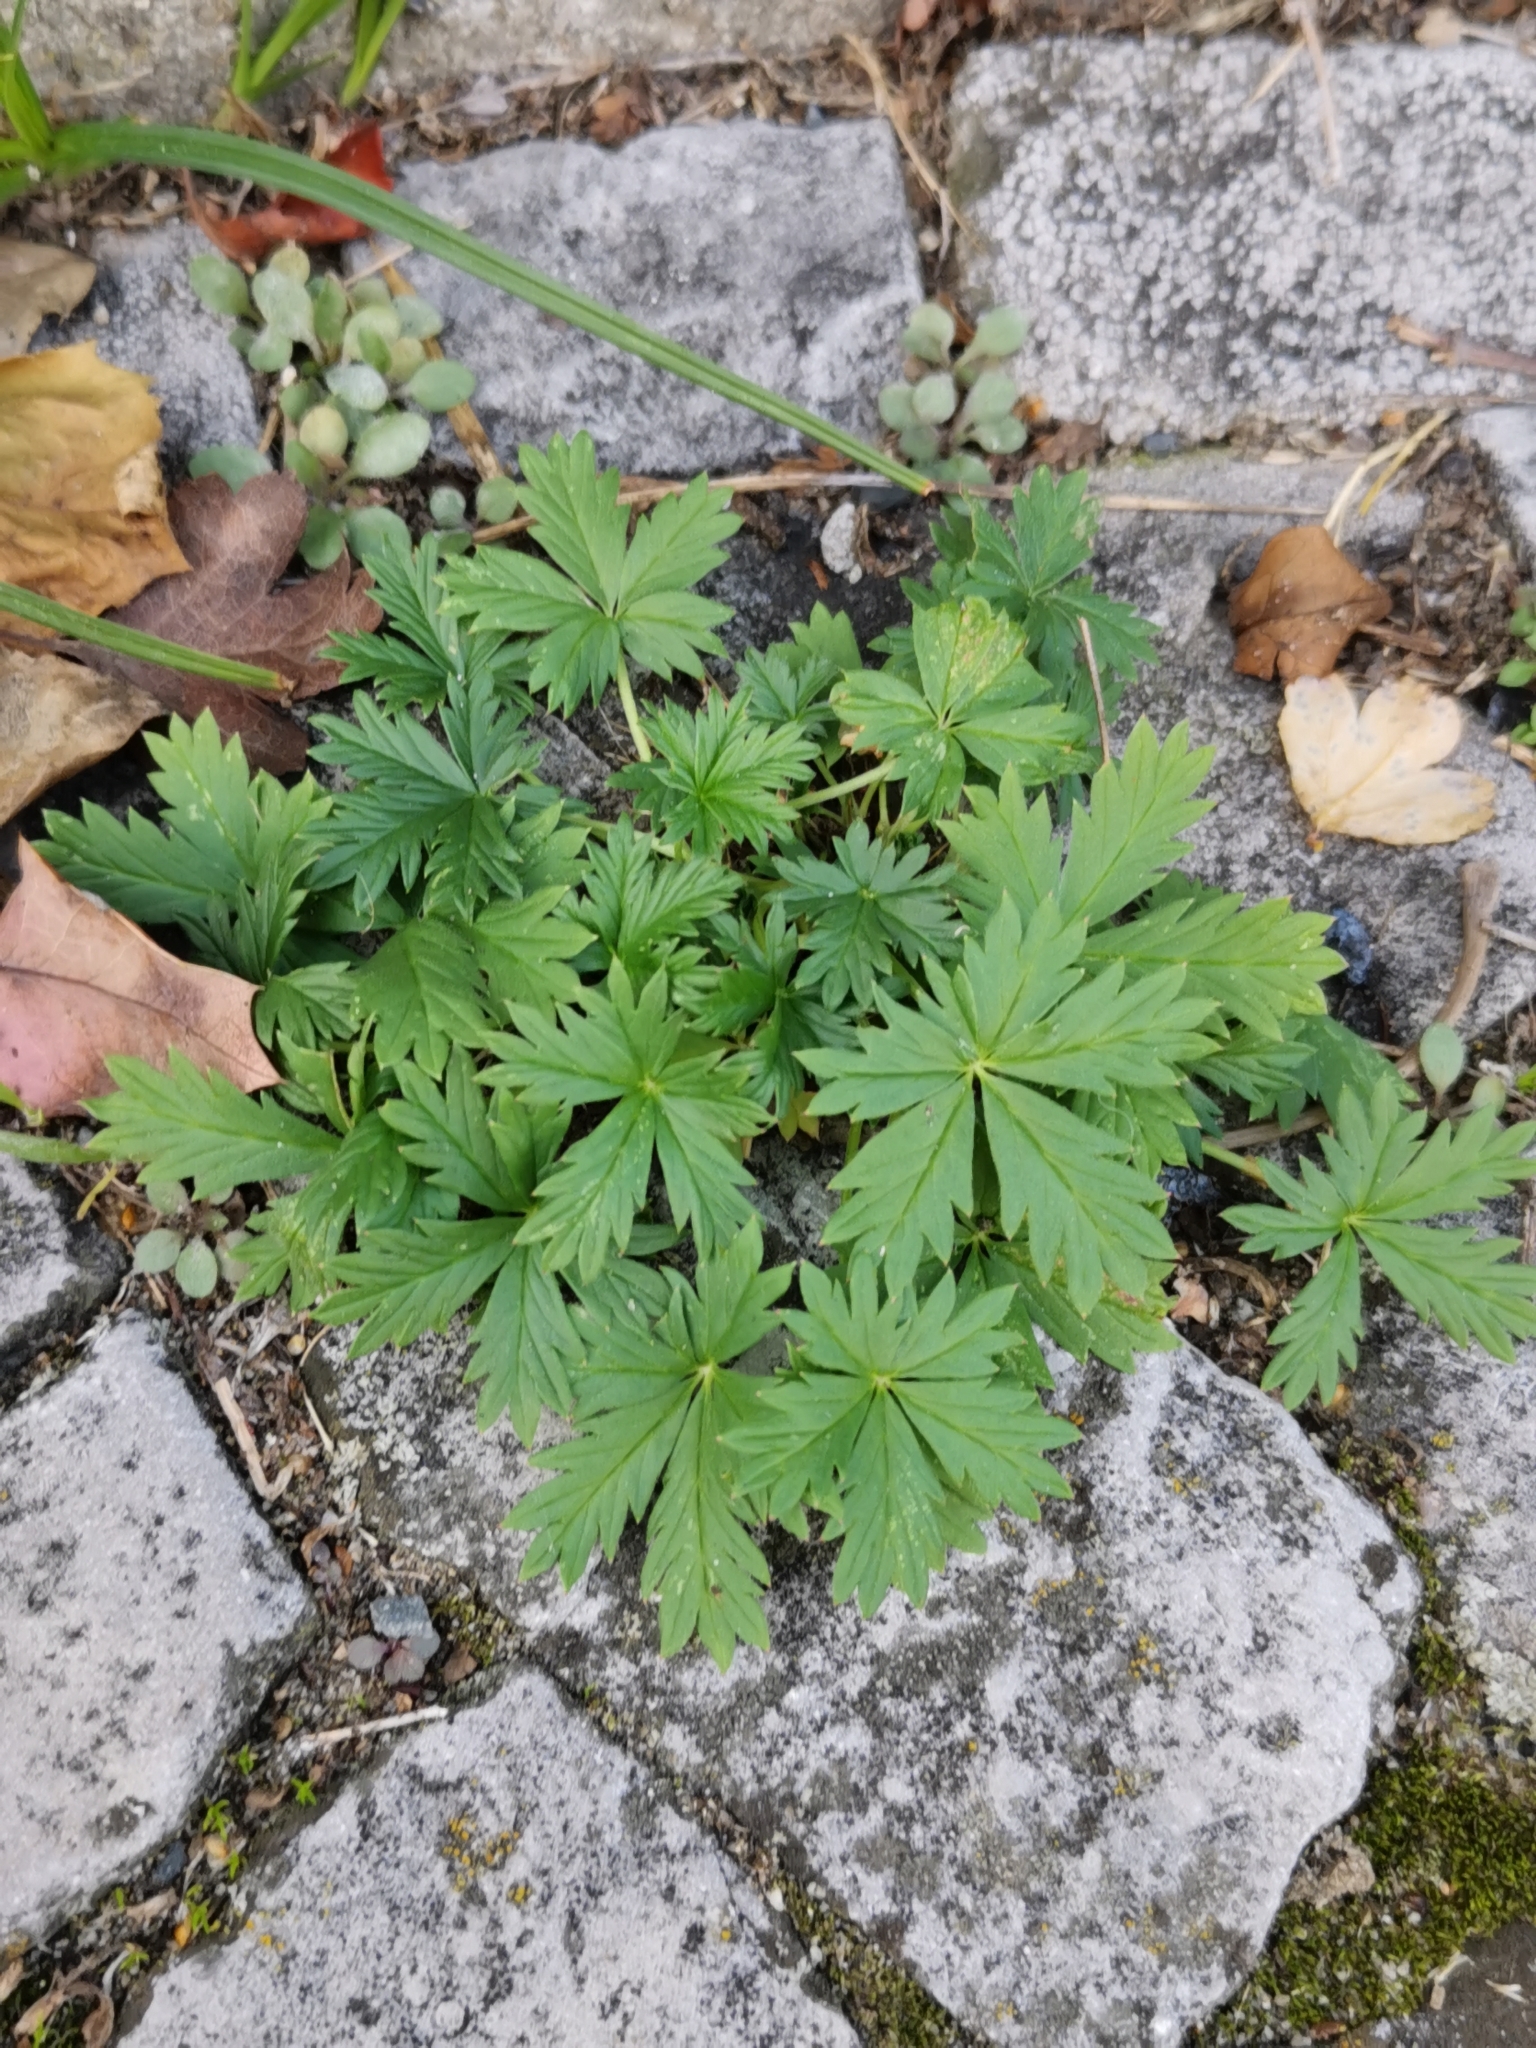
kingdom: Plantae
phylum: Tracheophyta
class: Magnoliopsida
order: Rosales
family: Rosaceae
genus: Potentilla
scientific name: Potentilla argentea
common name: Hoary cinquefoil
